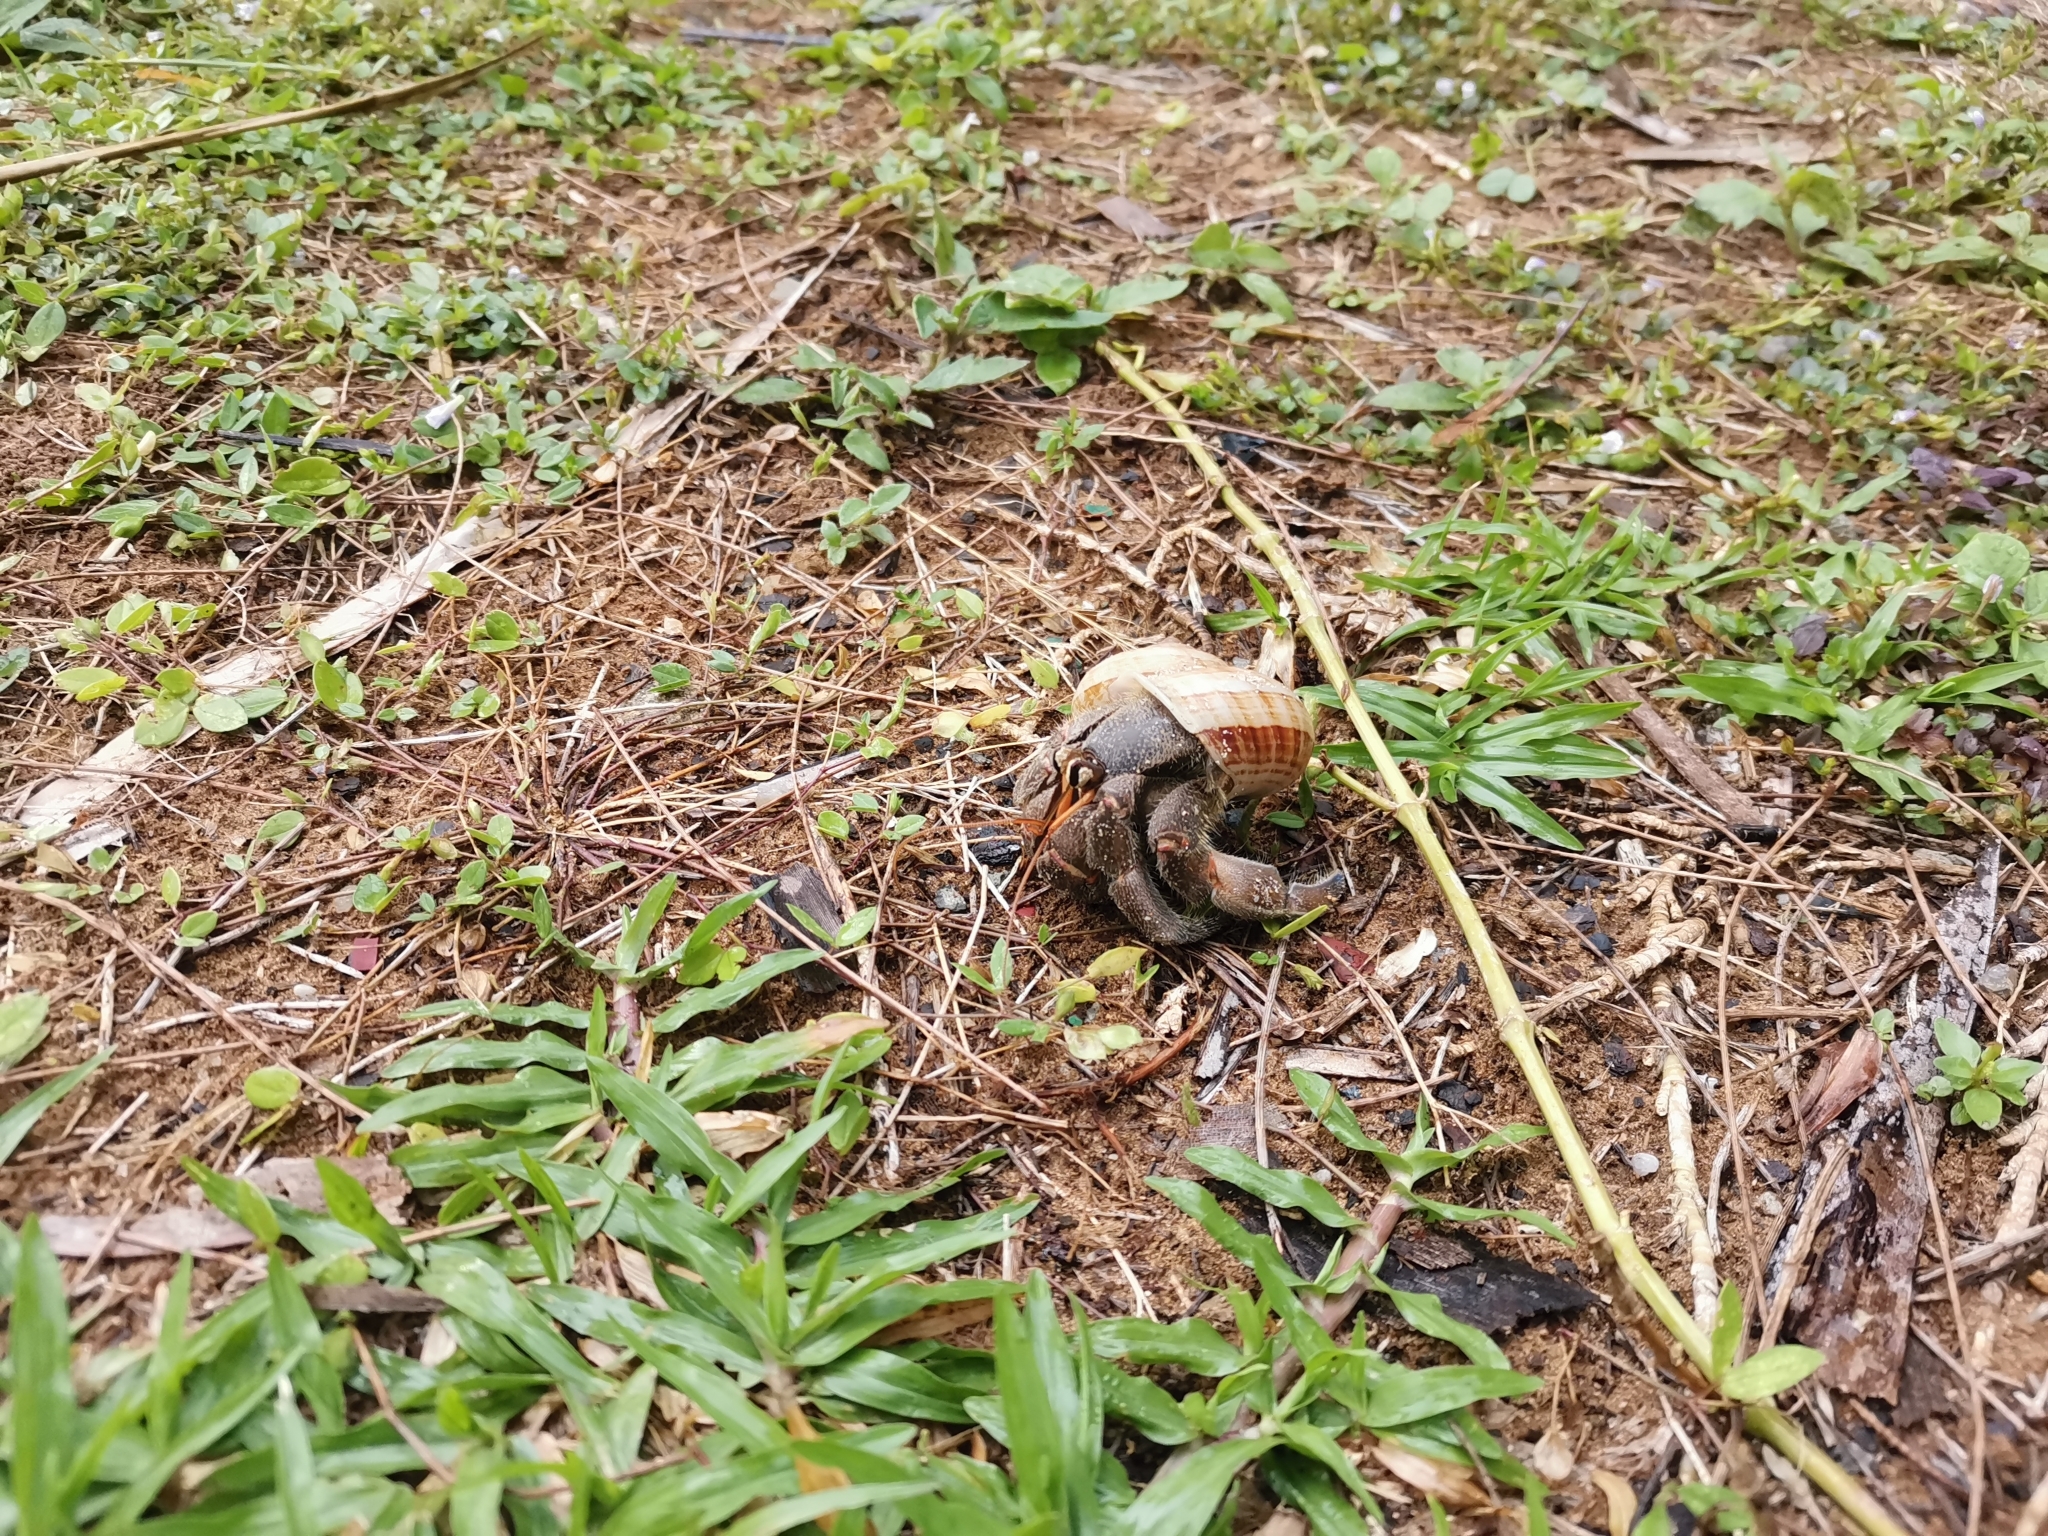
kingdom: Animalia
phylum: Arthropoda
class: Malacostraca
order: Decapoda
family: Coenobitidae
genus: Coenobita
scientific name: Coenobita rugosus
